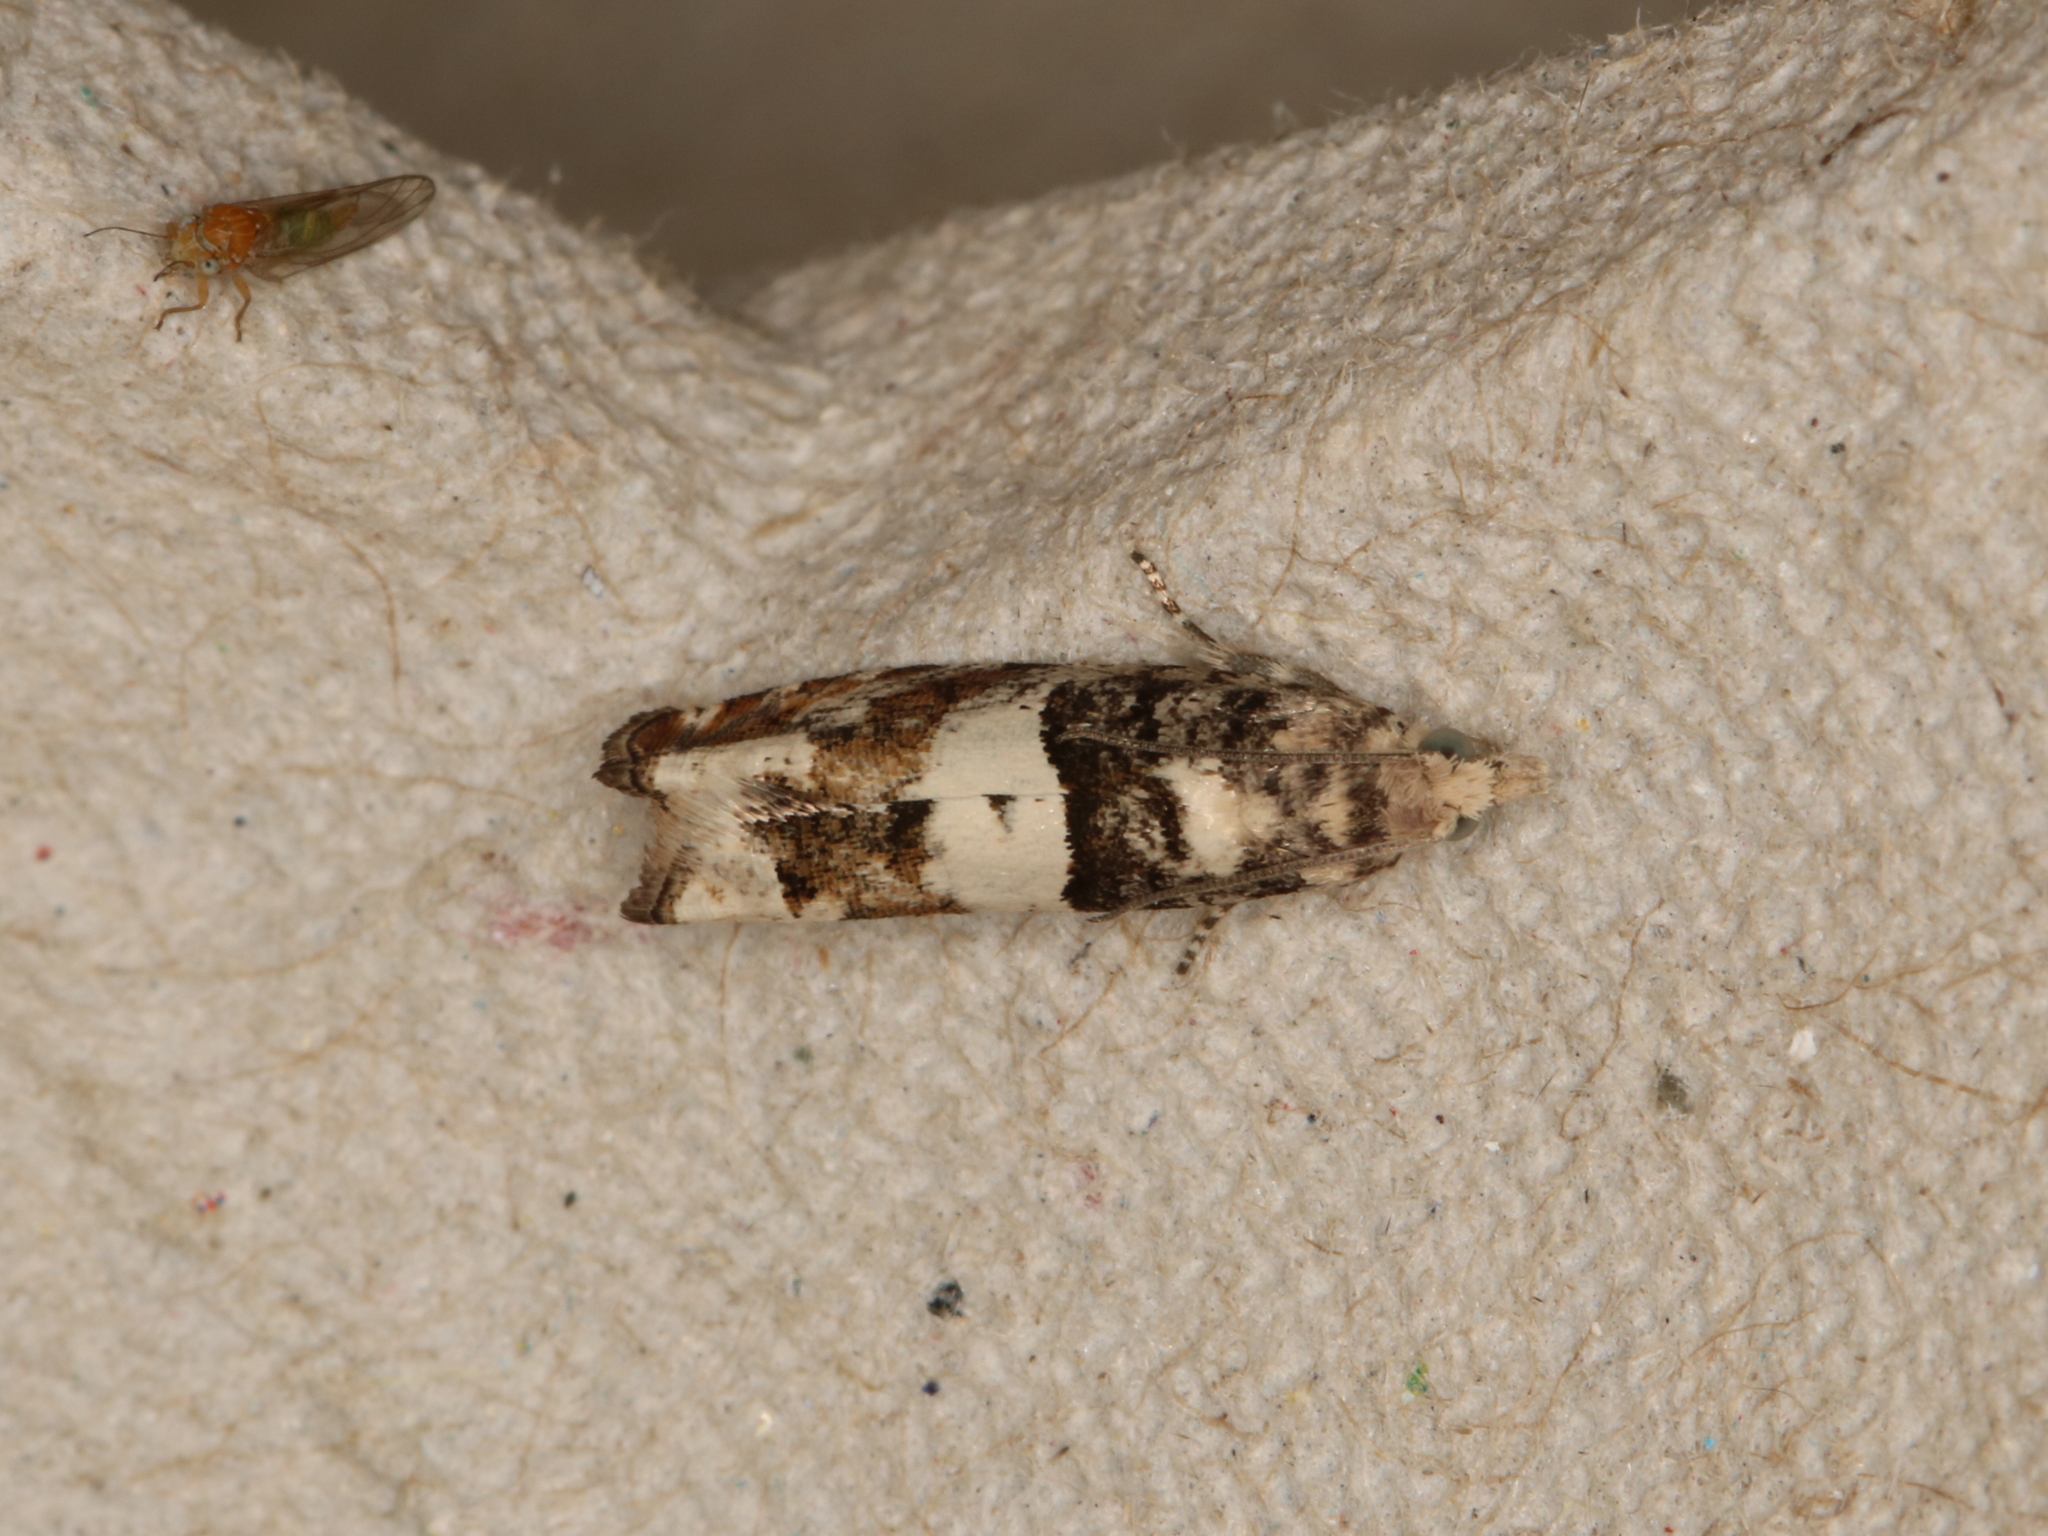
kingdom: Animalia
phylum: Arthropoda
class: Insecta
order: Lepidoptera
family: Tortricidae
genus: Epinotia
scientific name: Epinotia demarniana
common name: Birch bell
